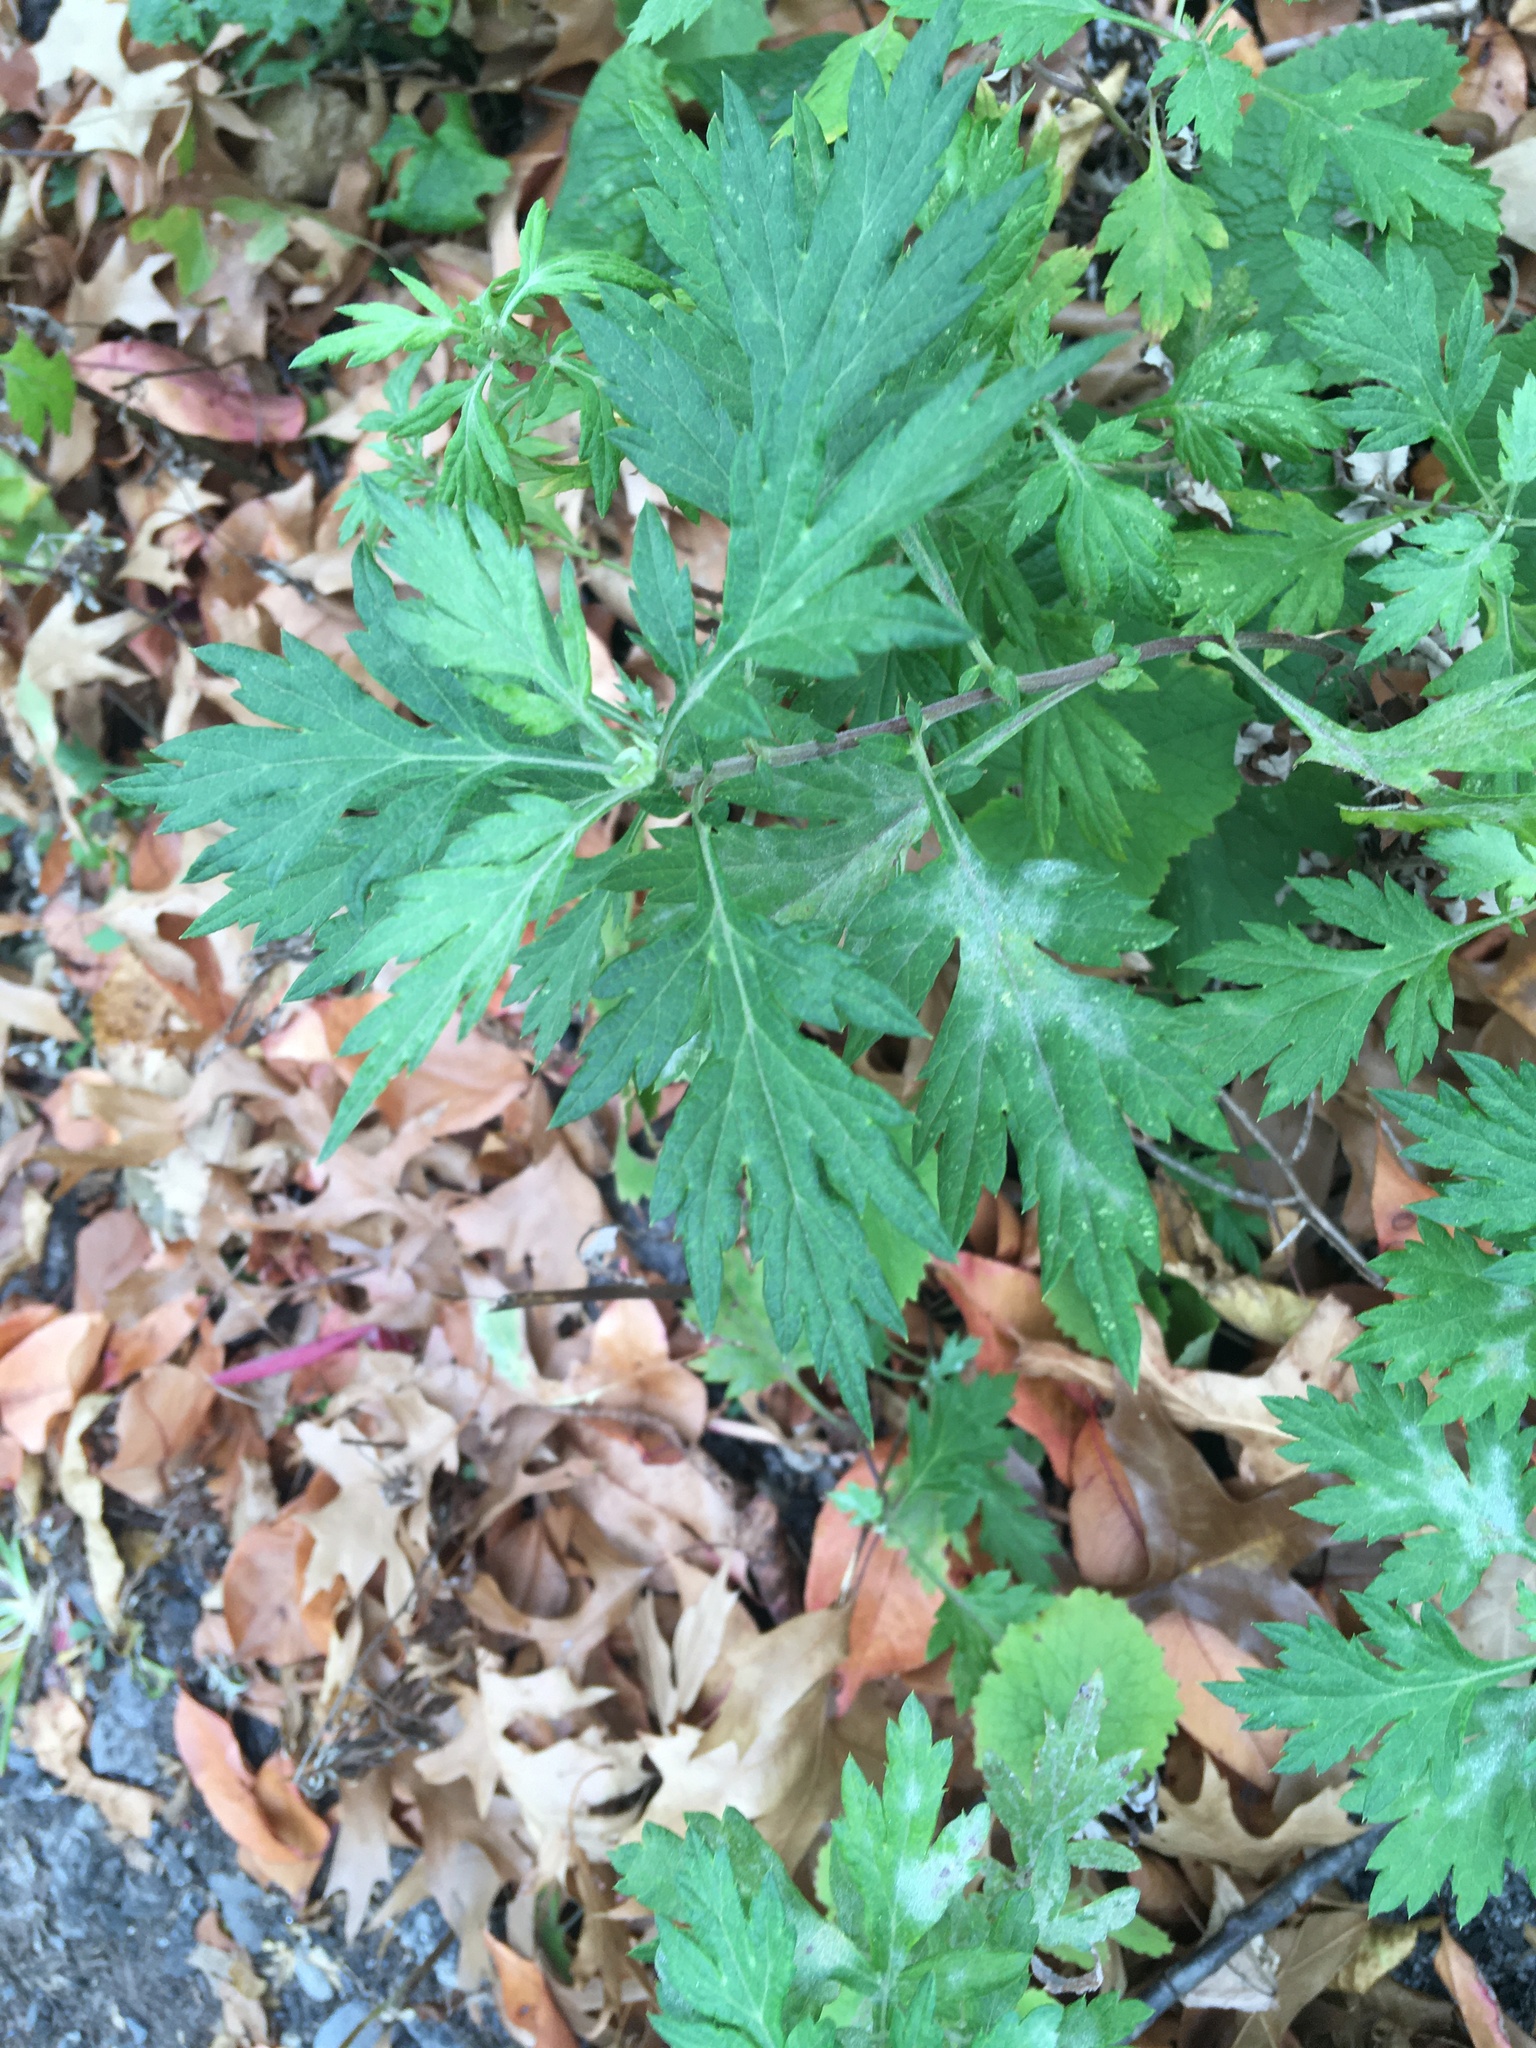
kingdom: Plantae
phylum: Tracheophyta
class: Magnoliopsida
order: Asterales
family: Asteraceae
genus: Artemisia
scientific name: Artemisia vulgaris
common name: Mugwort
